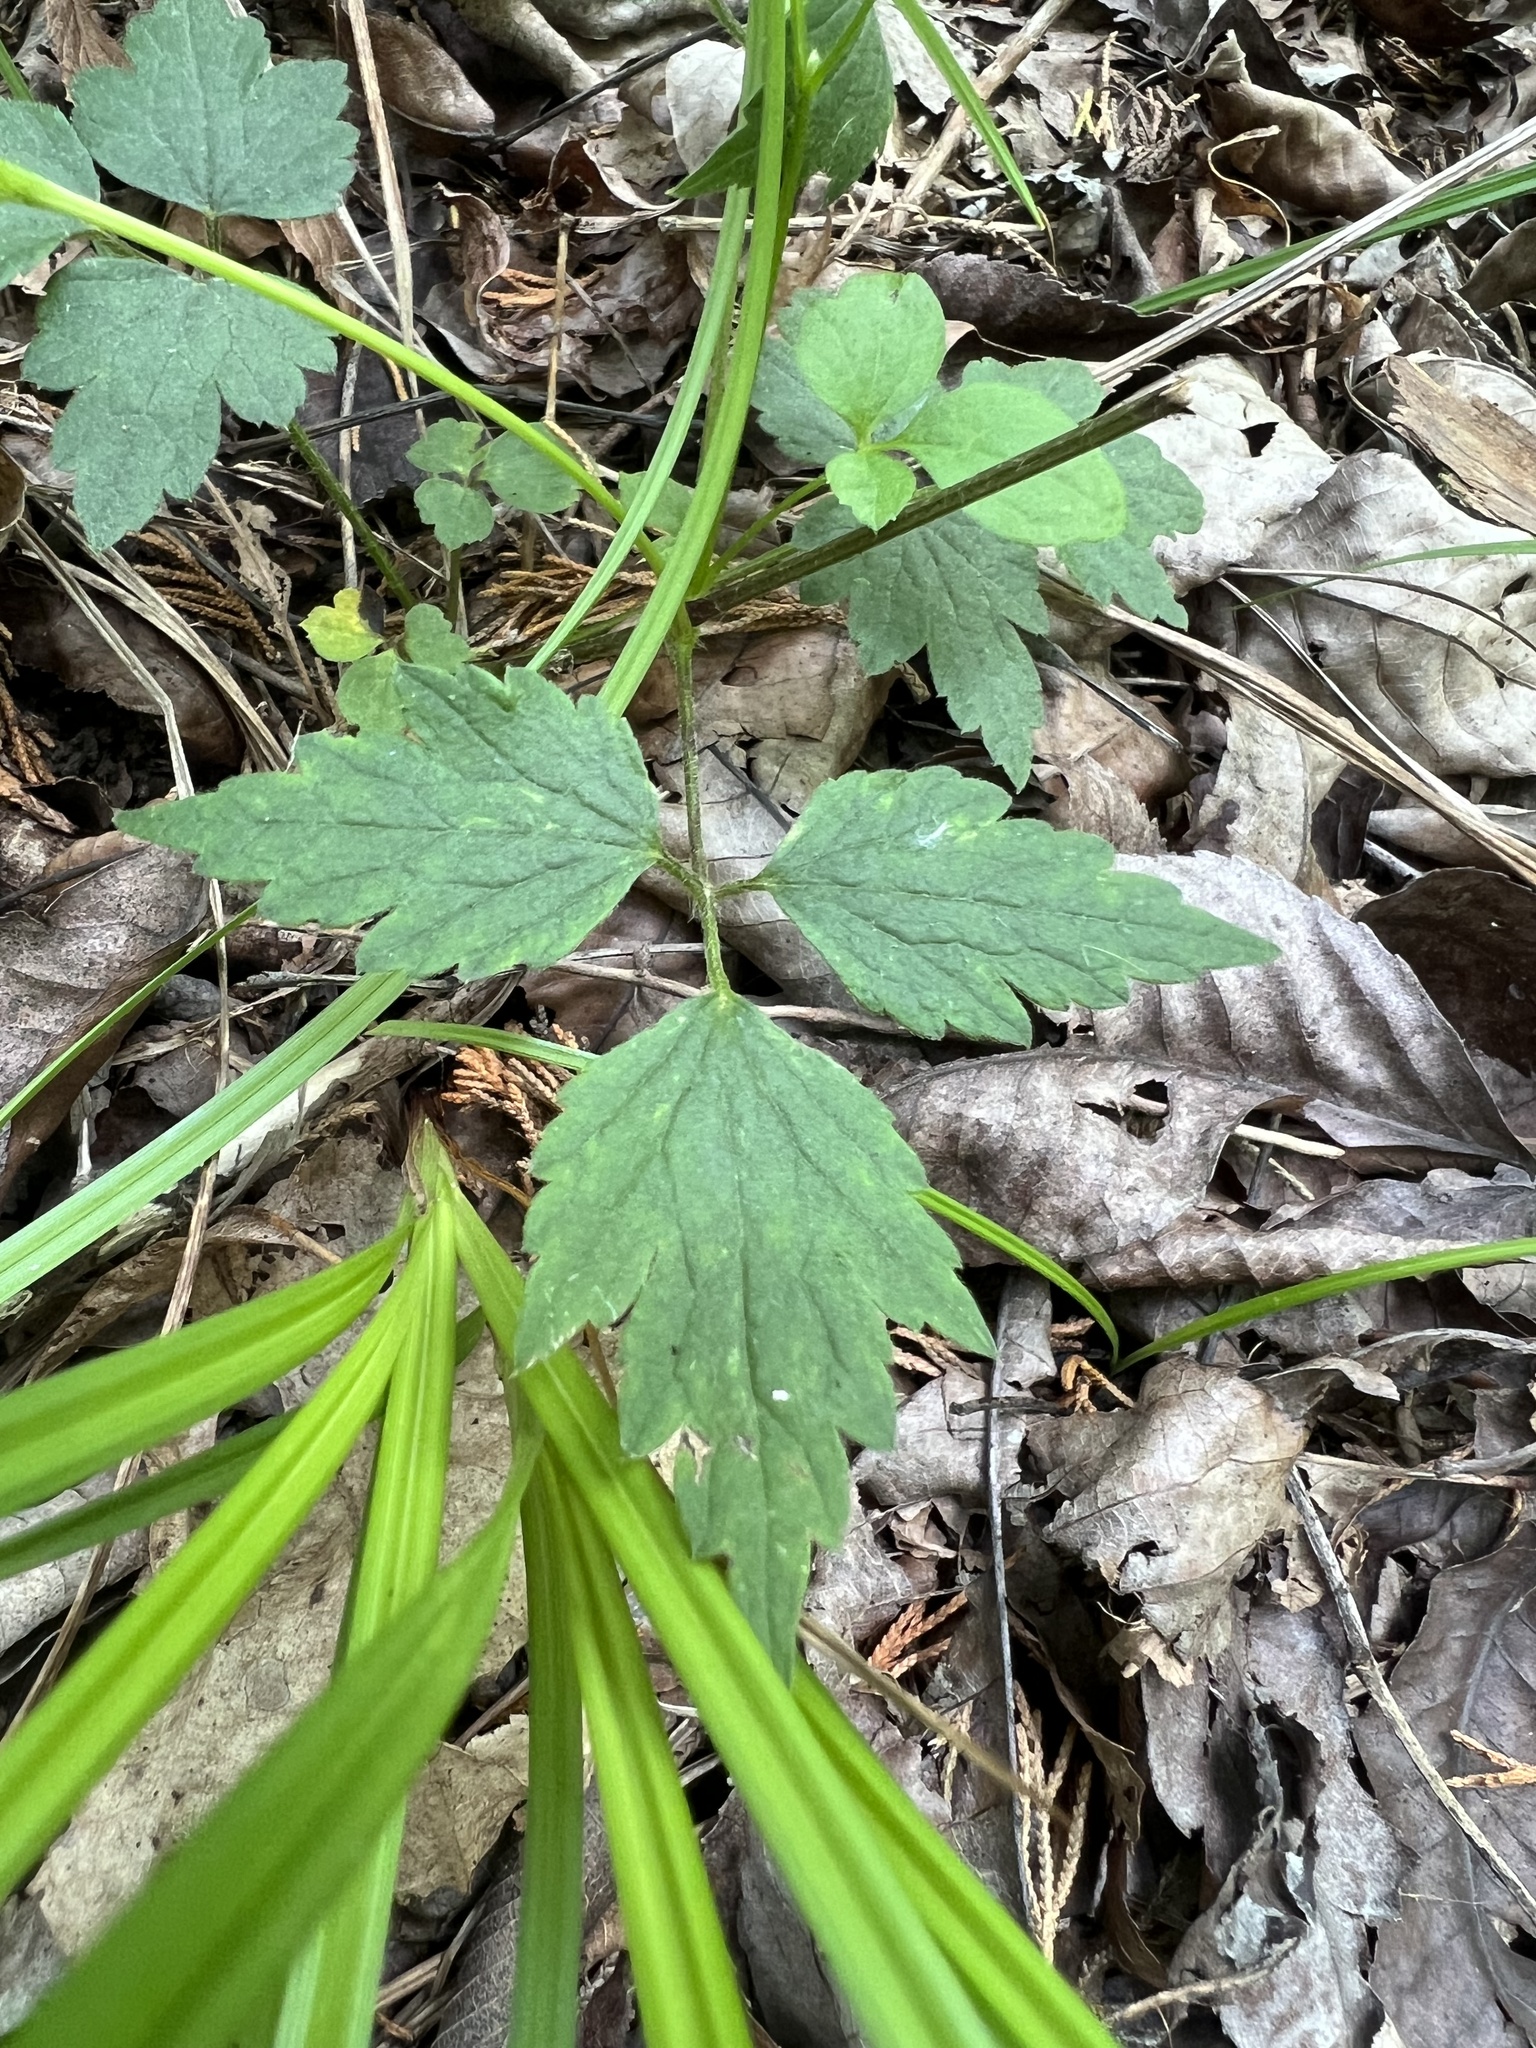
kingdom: Plantae
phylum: Tracheophyta
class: Magnoliopsida
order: Ranunculales
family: Ranunculaceae
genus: Clematis
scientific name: Clematis catesbyana
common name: Virgin's bower
